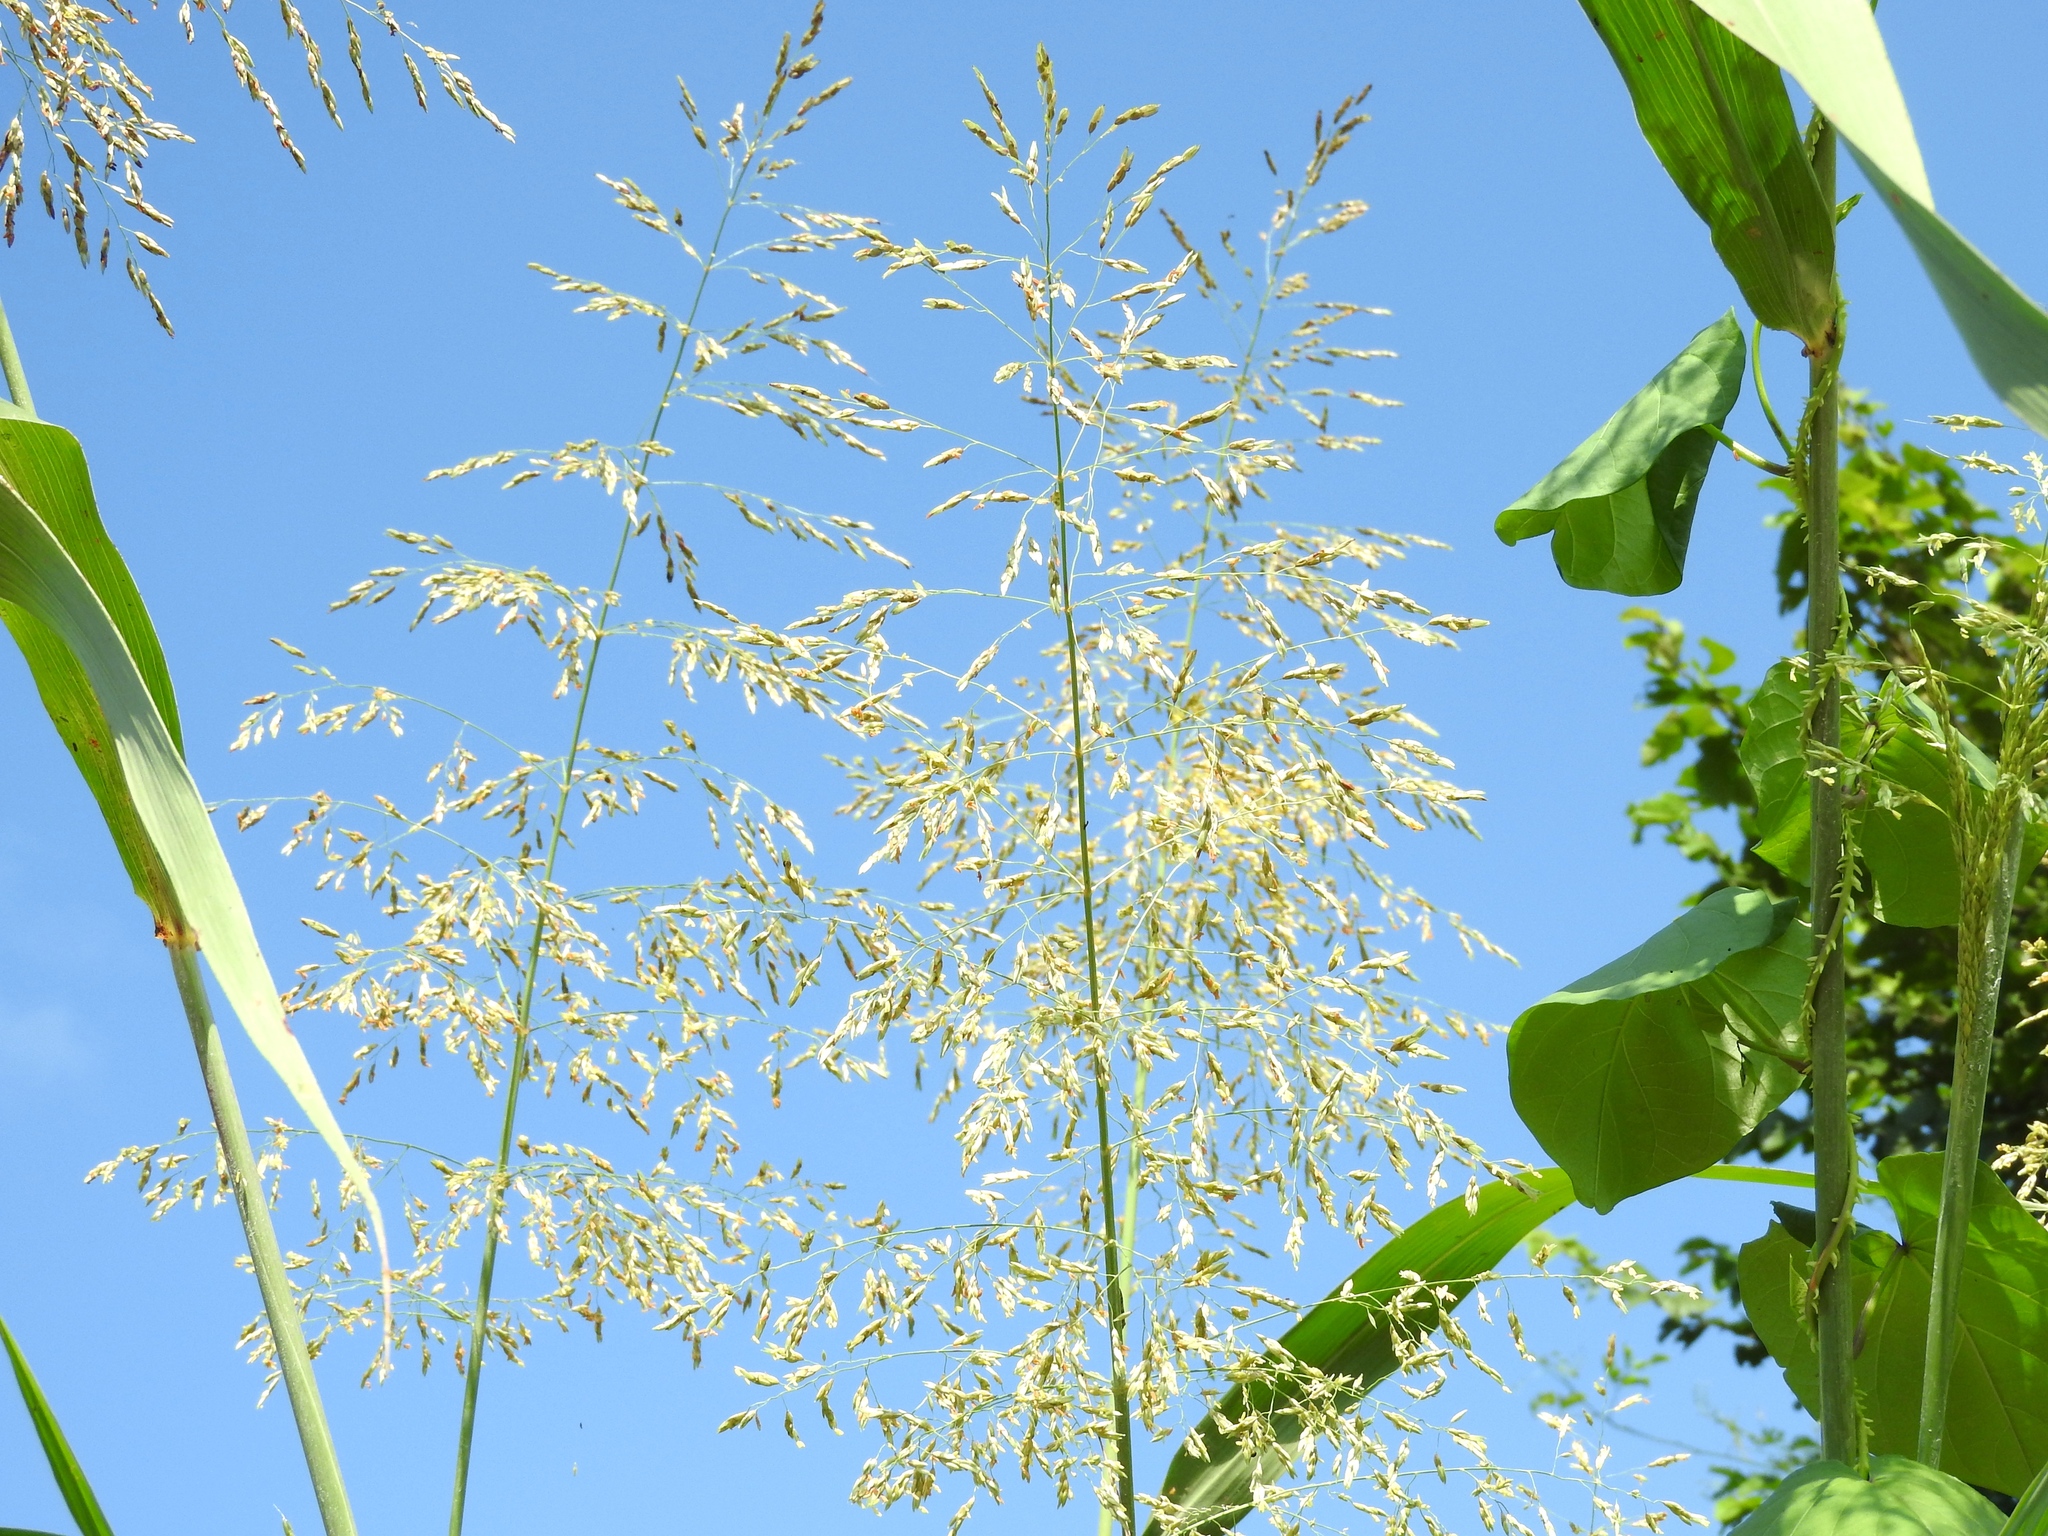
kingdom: Plantae
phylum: Tracheophyta
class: Liliopsida
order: Poales
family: Poaceae
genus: Sorghum
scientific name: Sorghum halepense
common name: Johnson-grass
